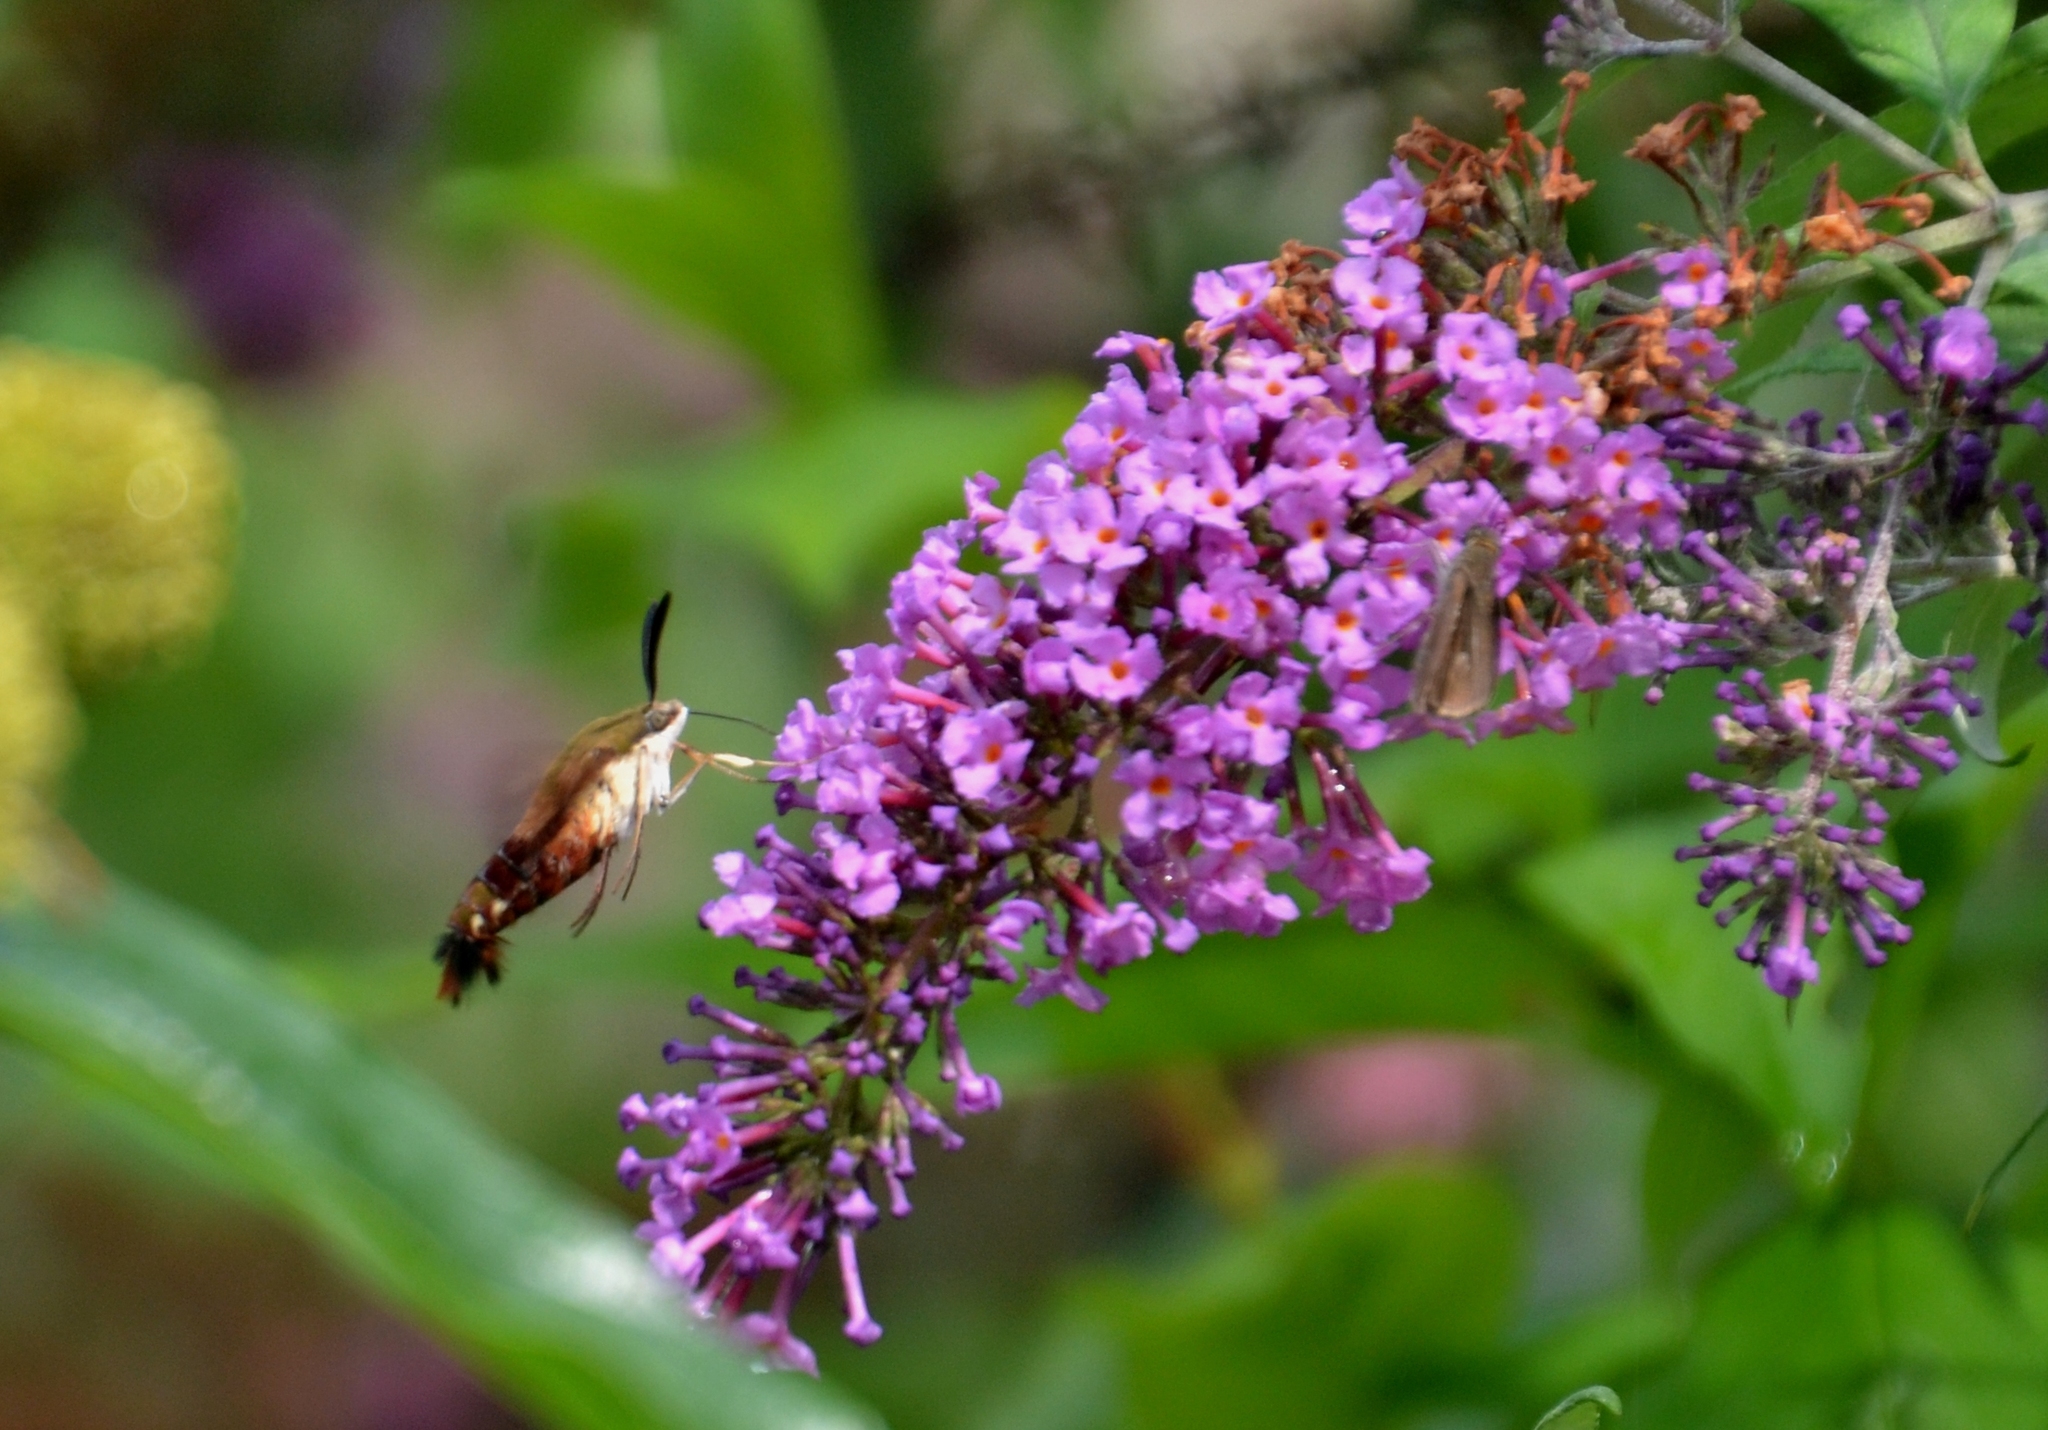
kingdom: Animalia
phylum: Arthropoda
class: Insecta
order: Lepidoptera
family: Sphingidae
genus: Hemaris
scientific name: Hemaris thysbe
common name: Common clear-wing
